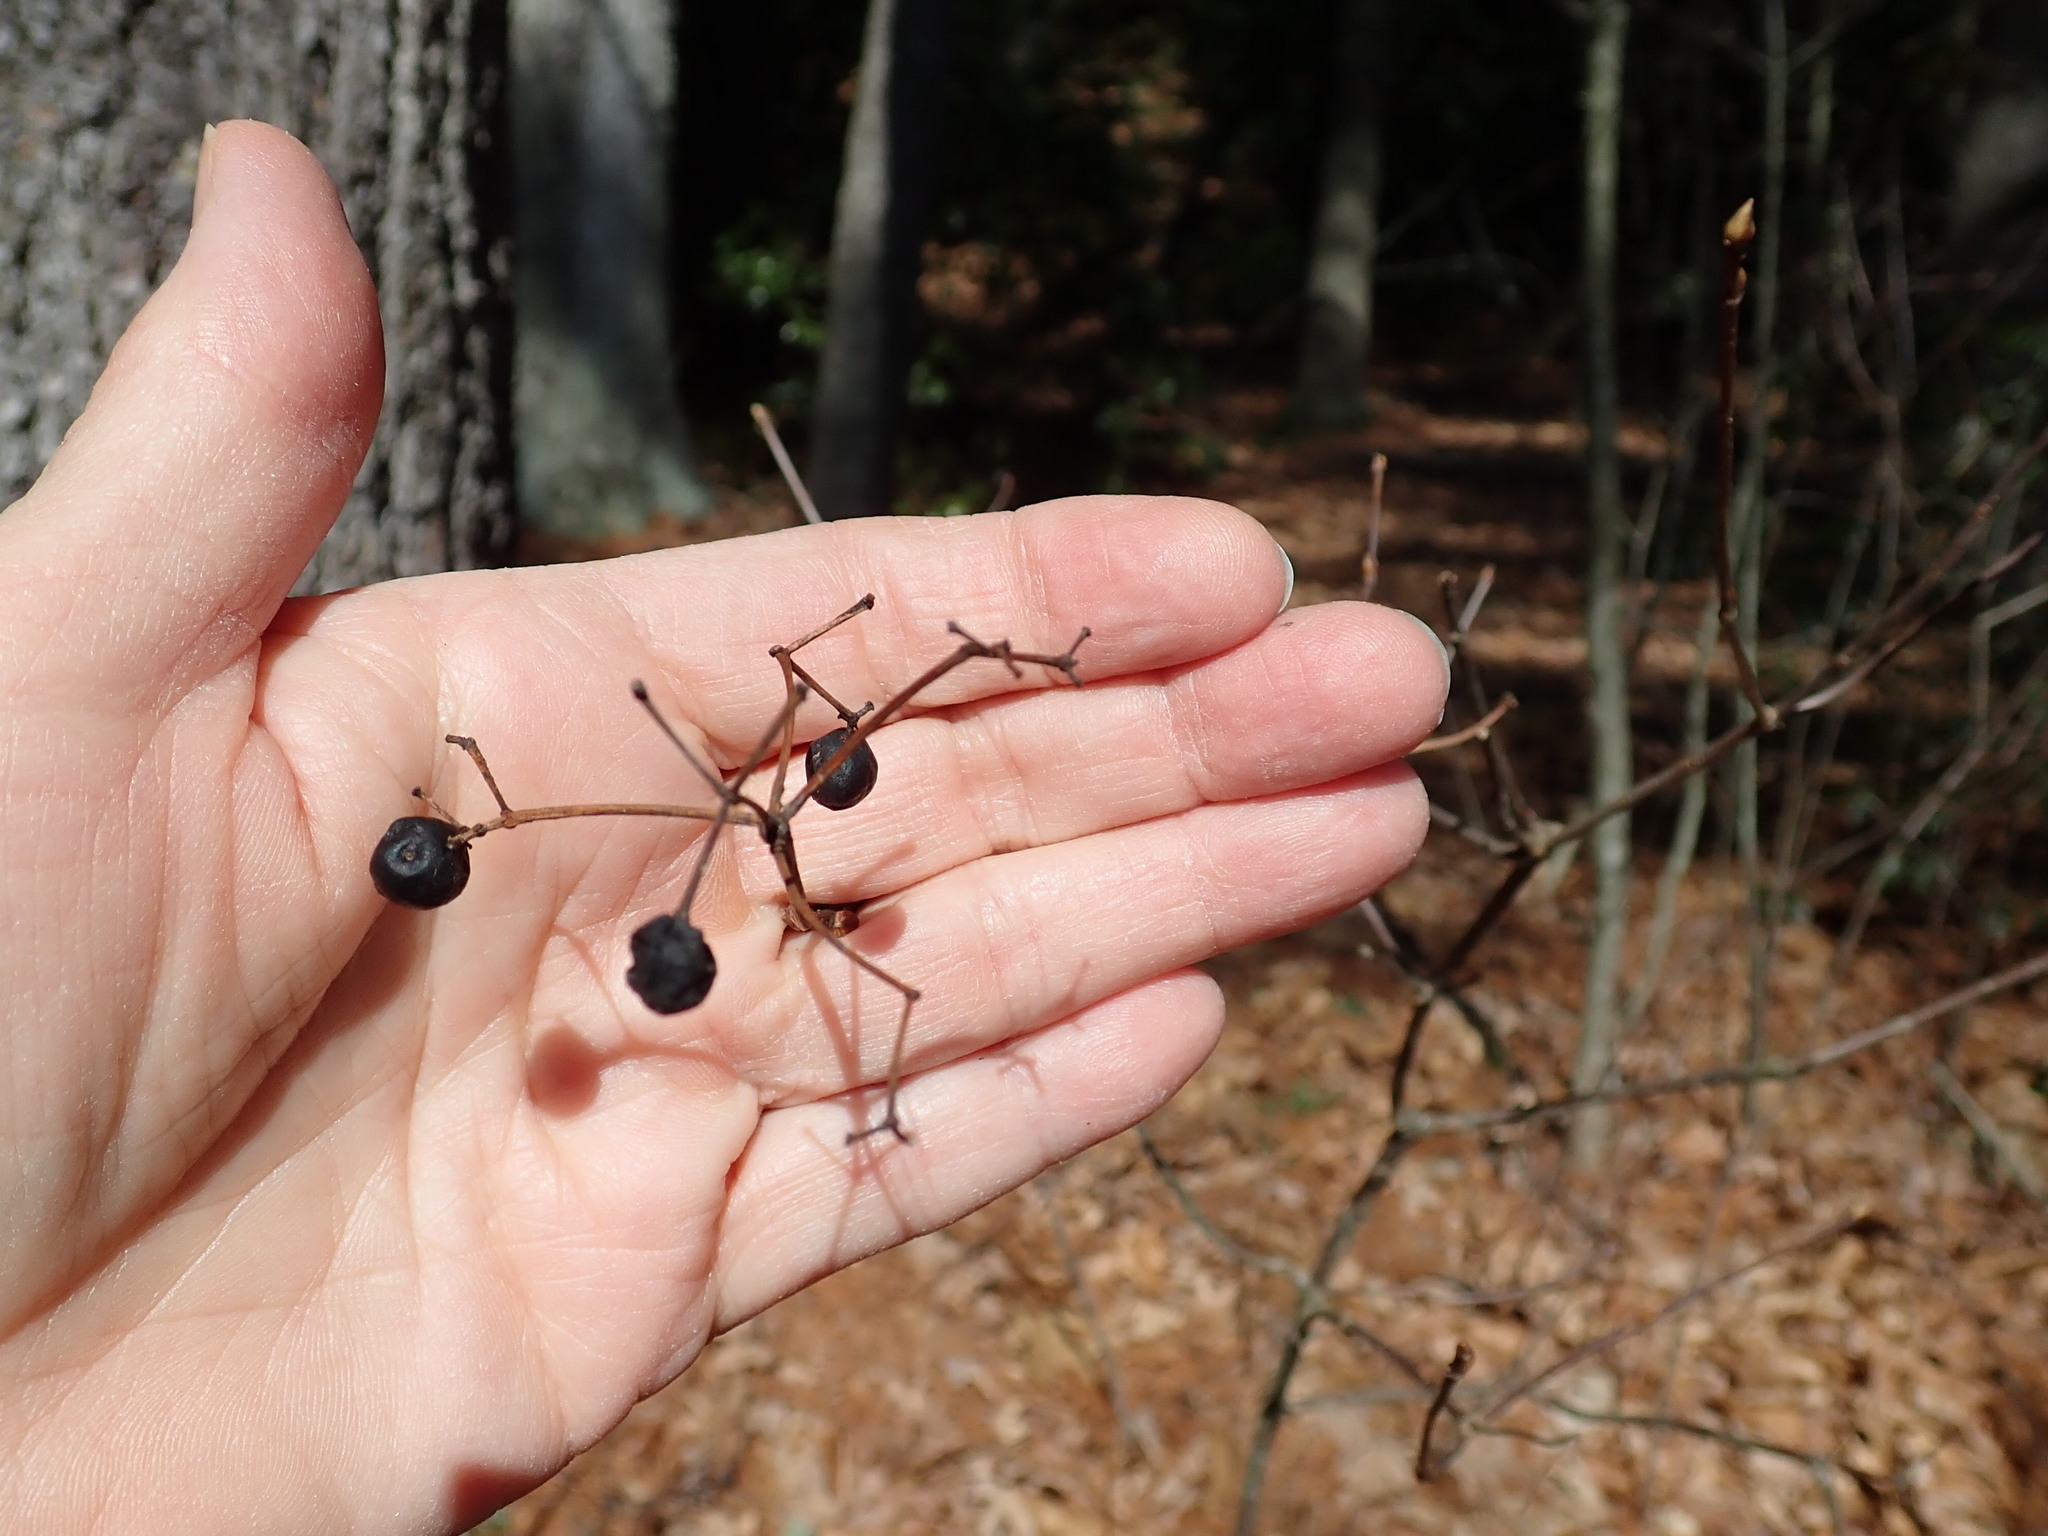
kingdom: Plantae
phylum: Tracheophyta
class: Magnoliopsida
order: Dipsacales
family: Viburnaceae
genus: Viburnum
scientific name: Viburnum acerifolium
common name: Dockmackie
